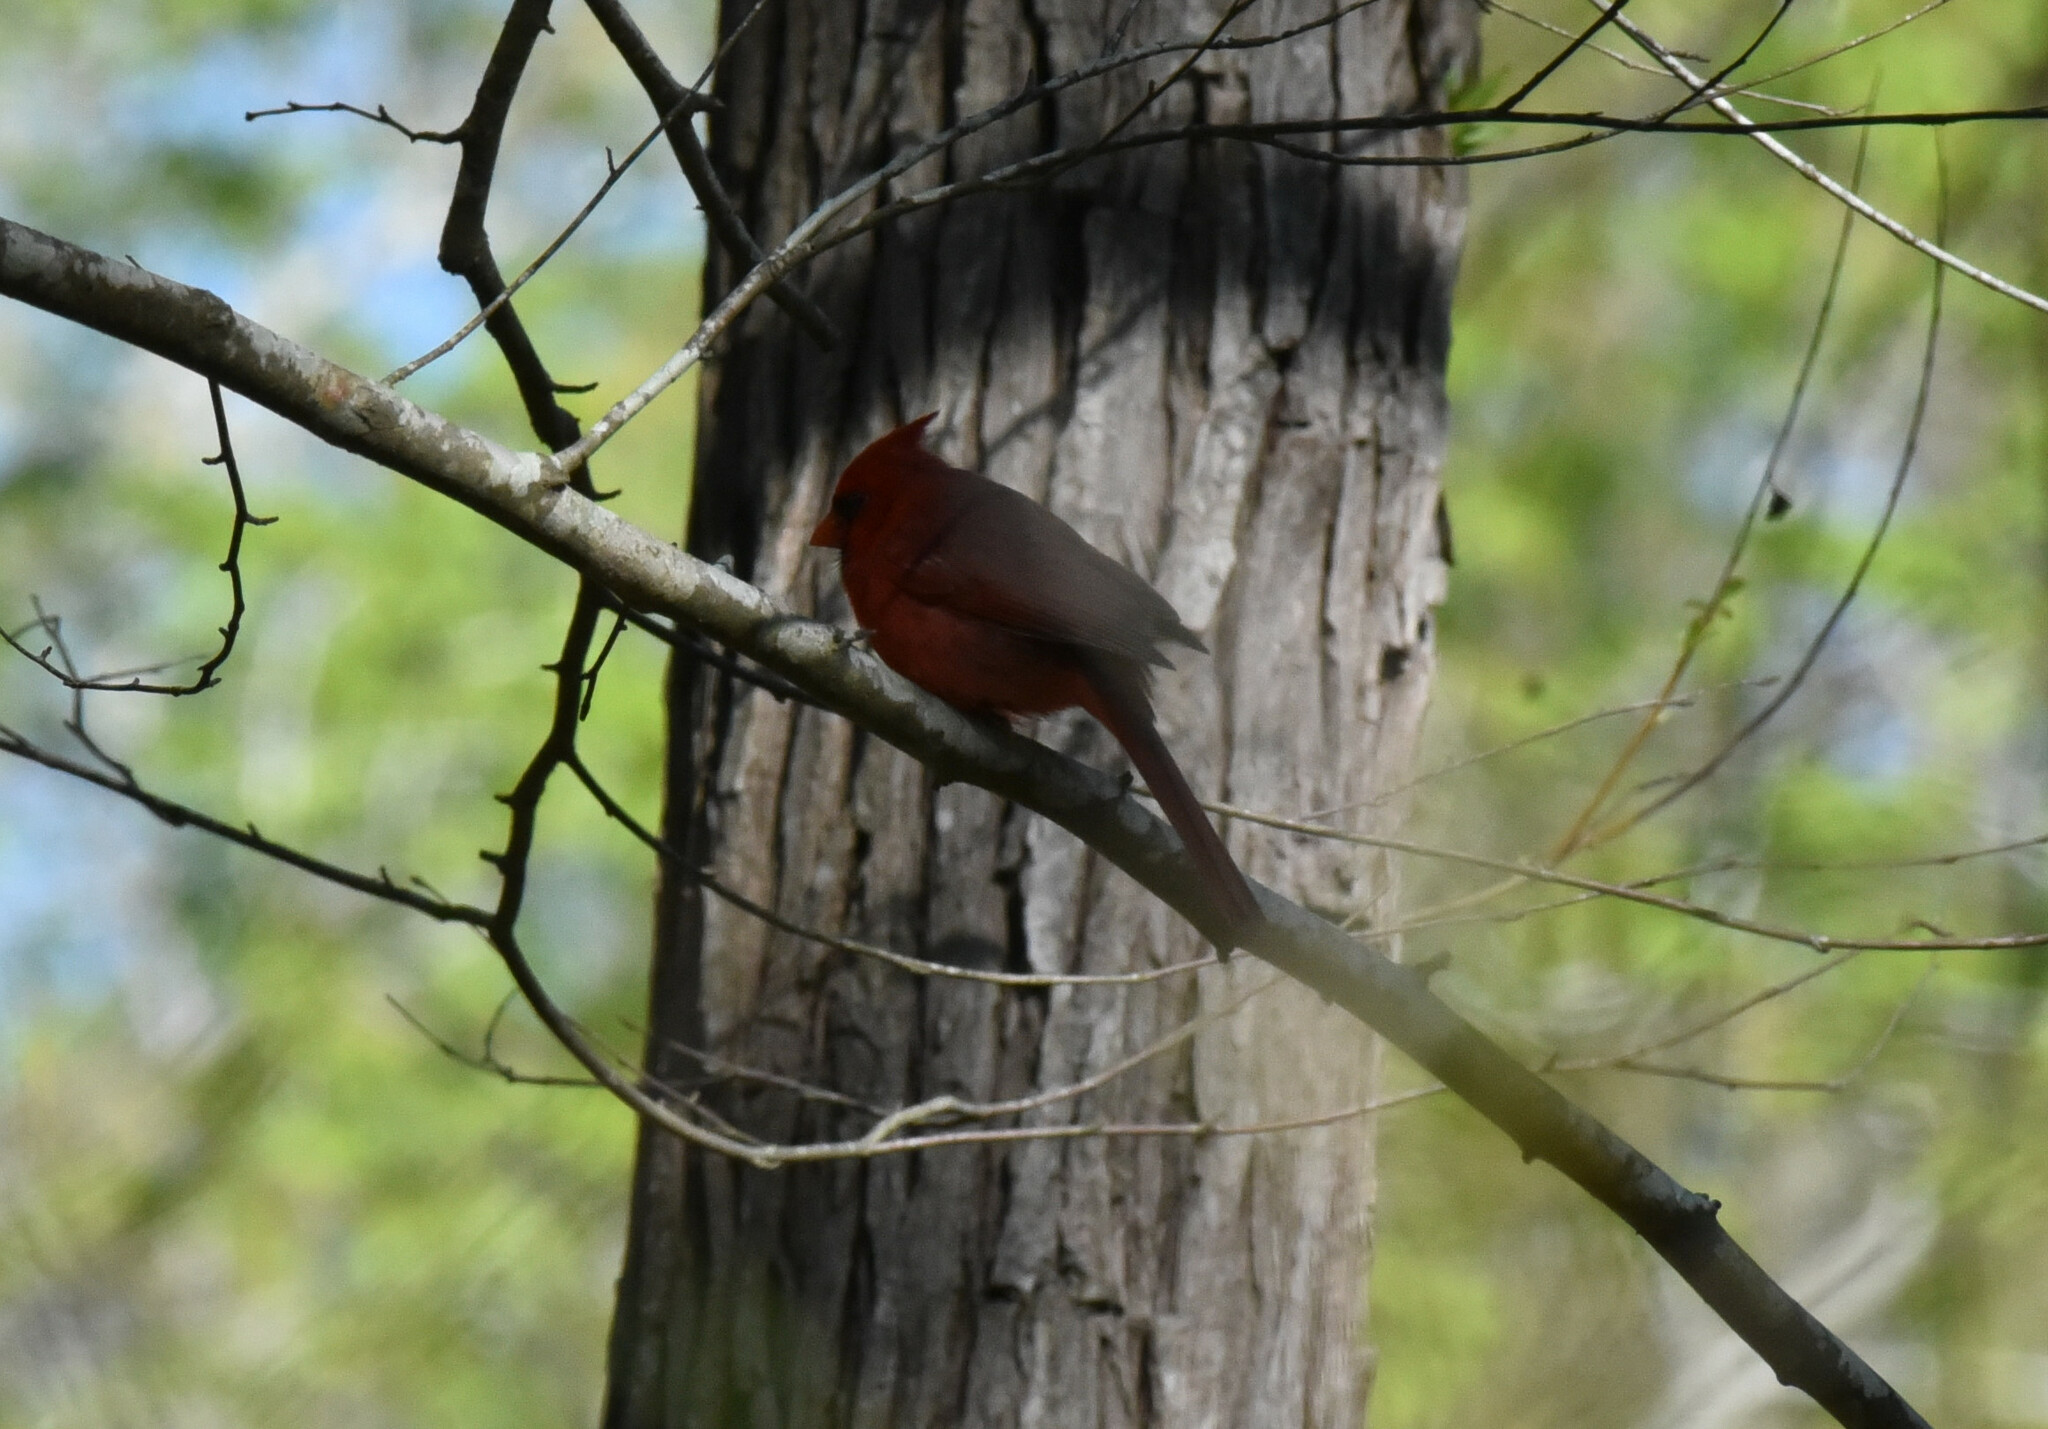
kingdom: Animalia
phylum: Chordata
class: Aves
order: Passeriformes
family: Cardinalidae
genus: Cardinalis
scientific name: Cardinalis cardinalis
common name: Northern cardinal
